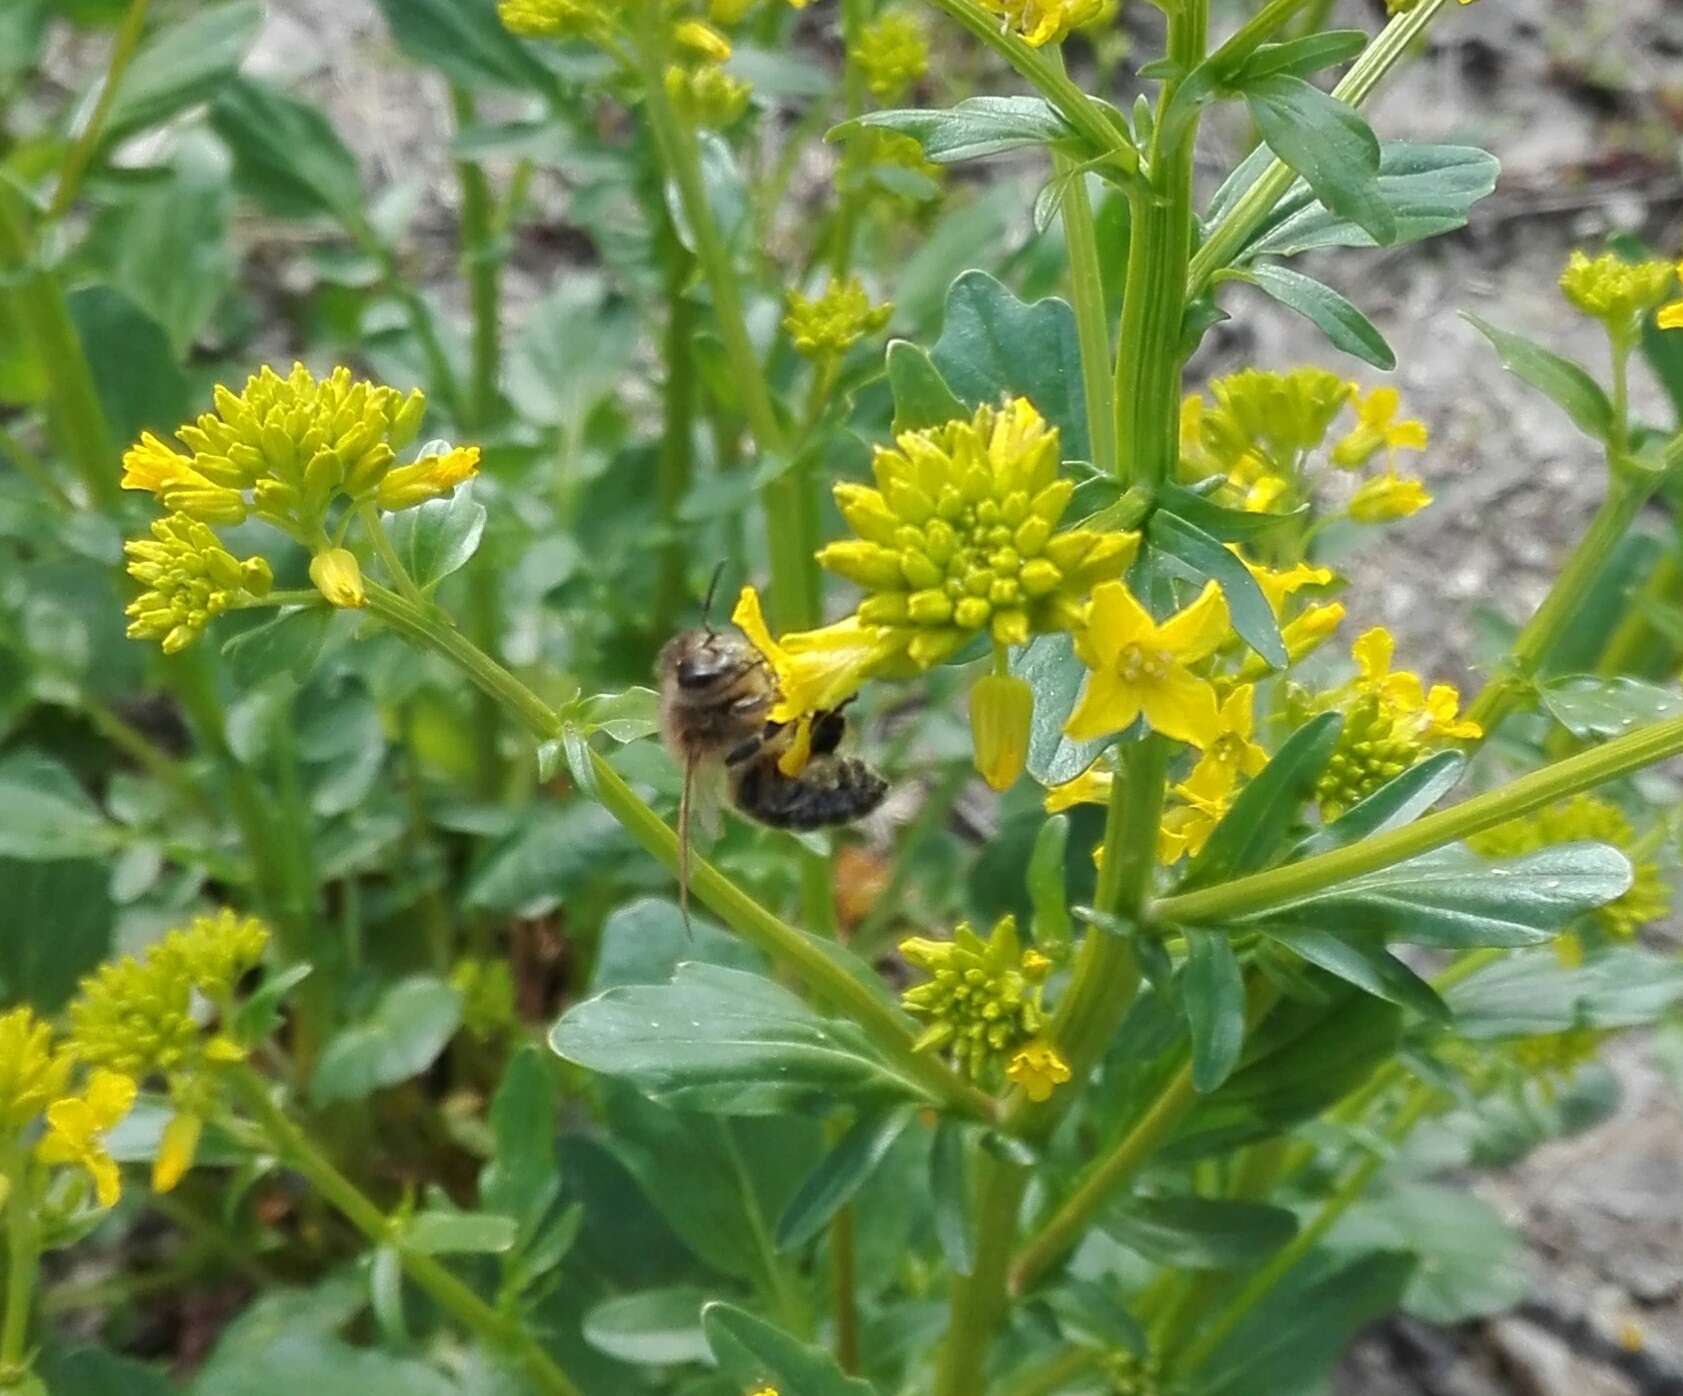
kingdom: Animalia
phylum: Arthropoda
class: Insecta
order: Hymenoptera
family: Apidae
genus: Apis
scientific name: Apis mellifera
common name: Honey bee
